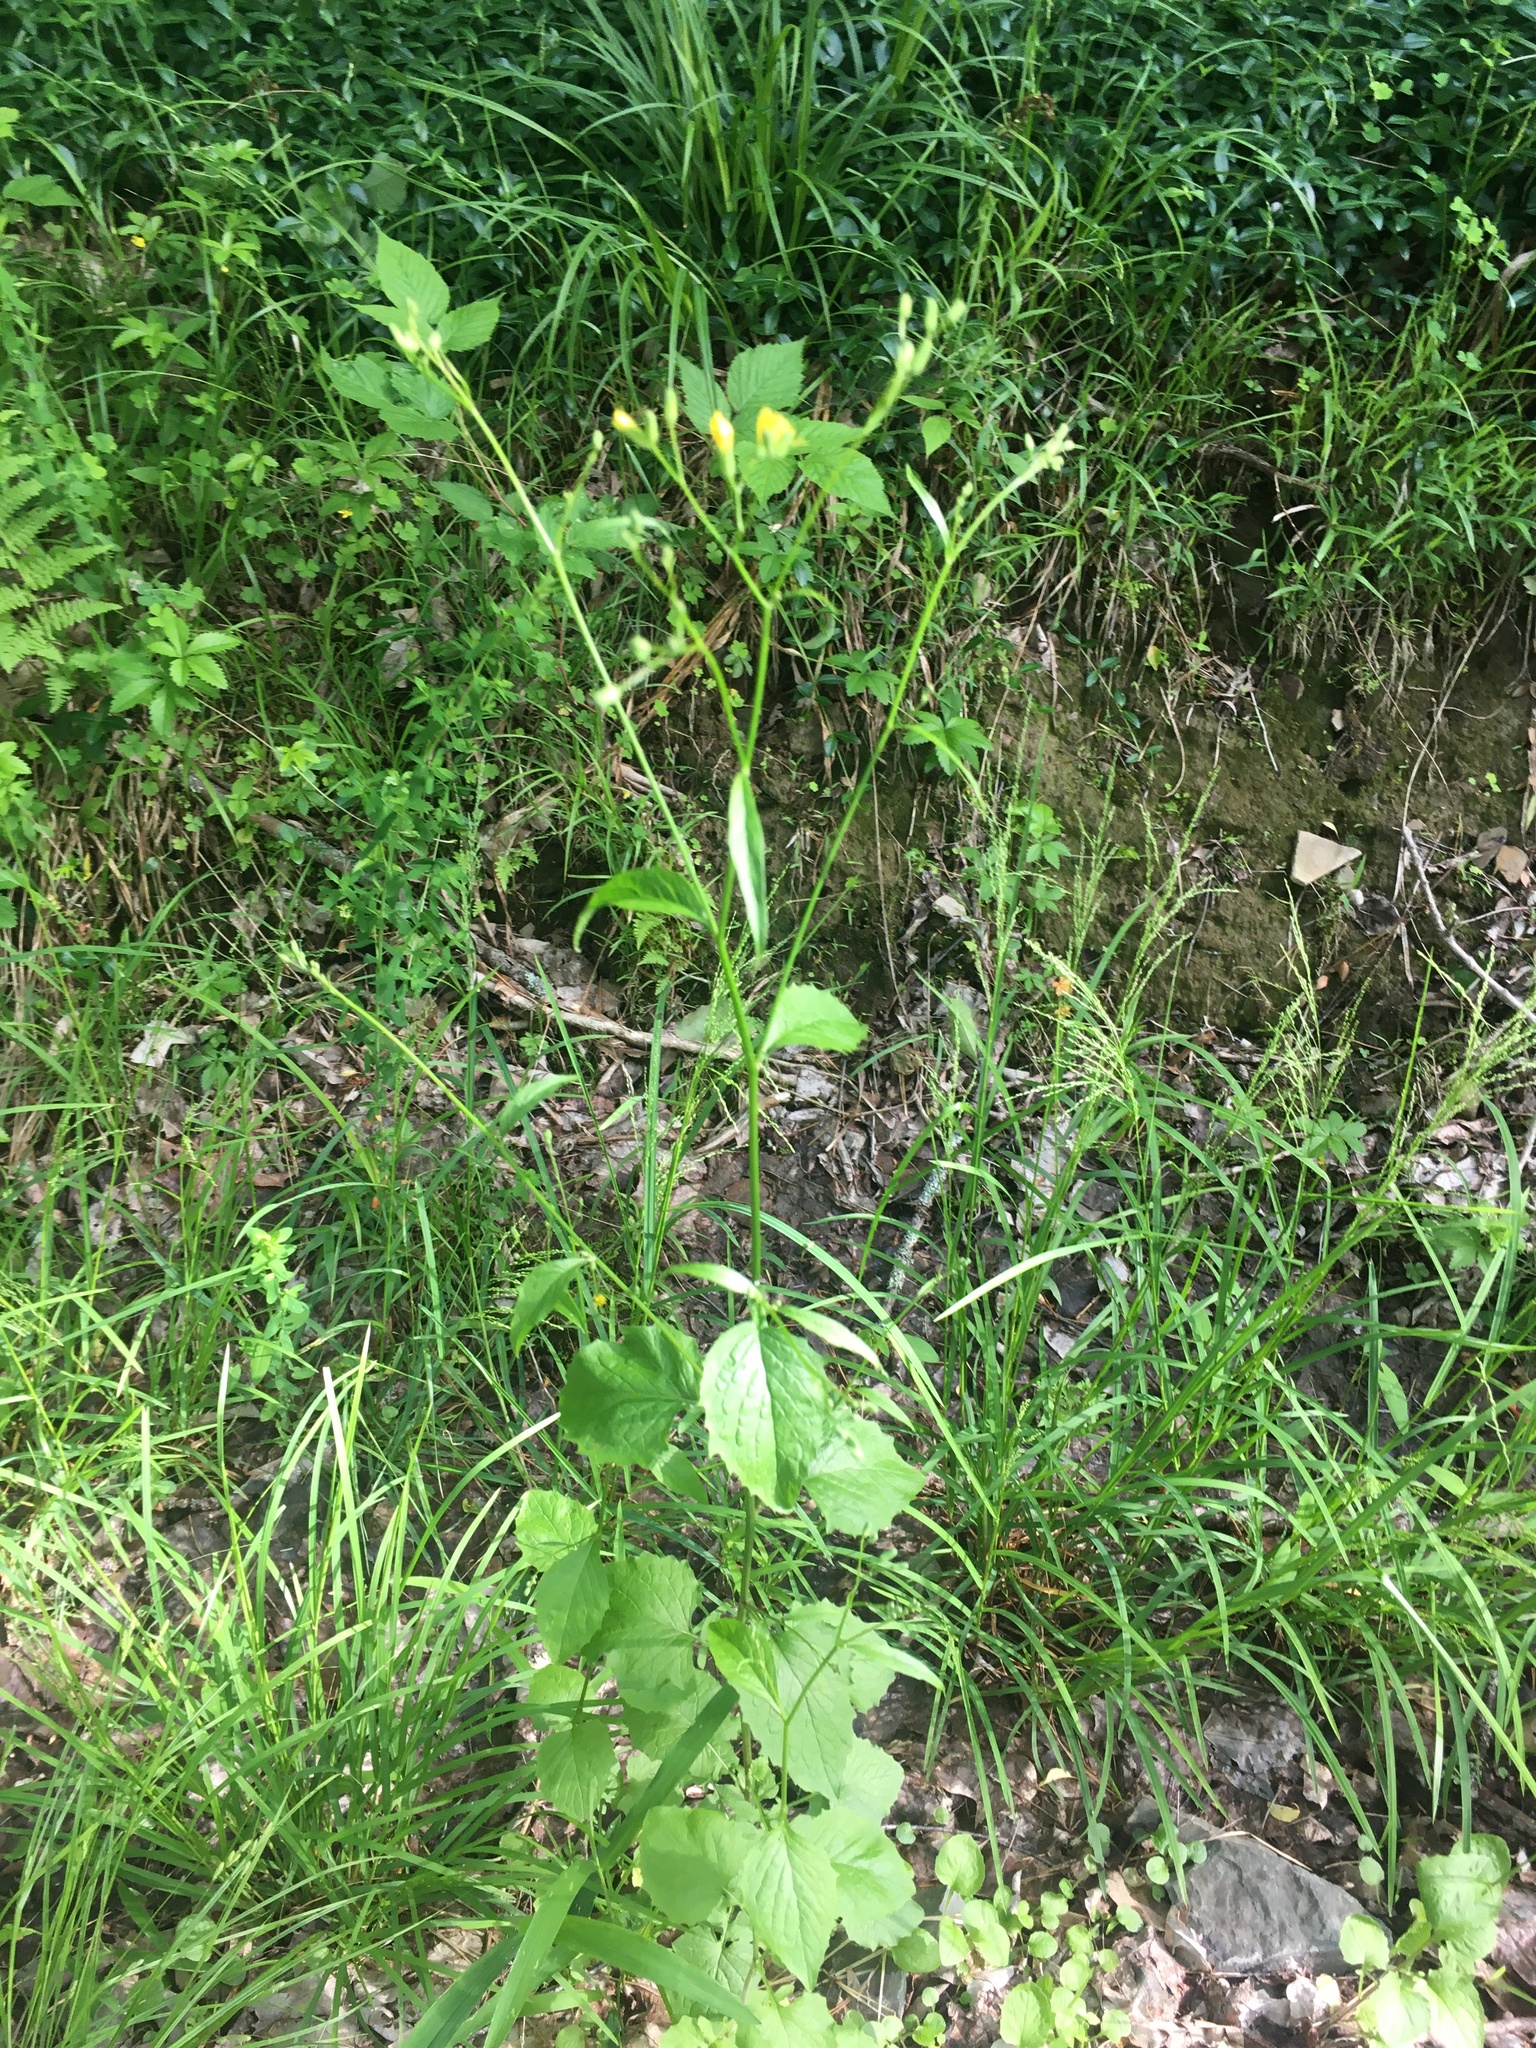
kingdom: Plantae
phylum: Tracheophyta
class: Magnoliopsida
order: Asterales
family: Asteraceae
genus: Lapsana
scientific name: Lapsana communis
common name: Nipplewort
